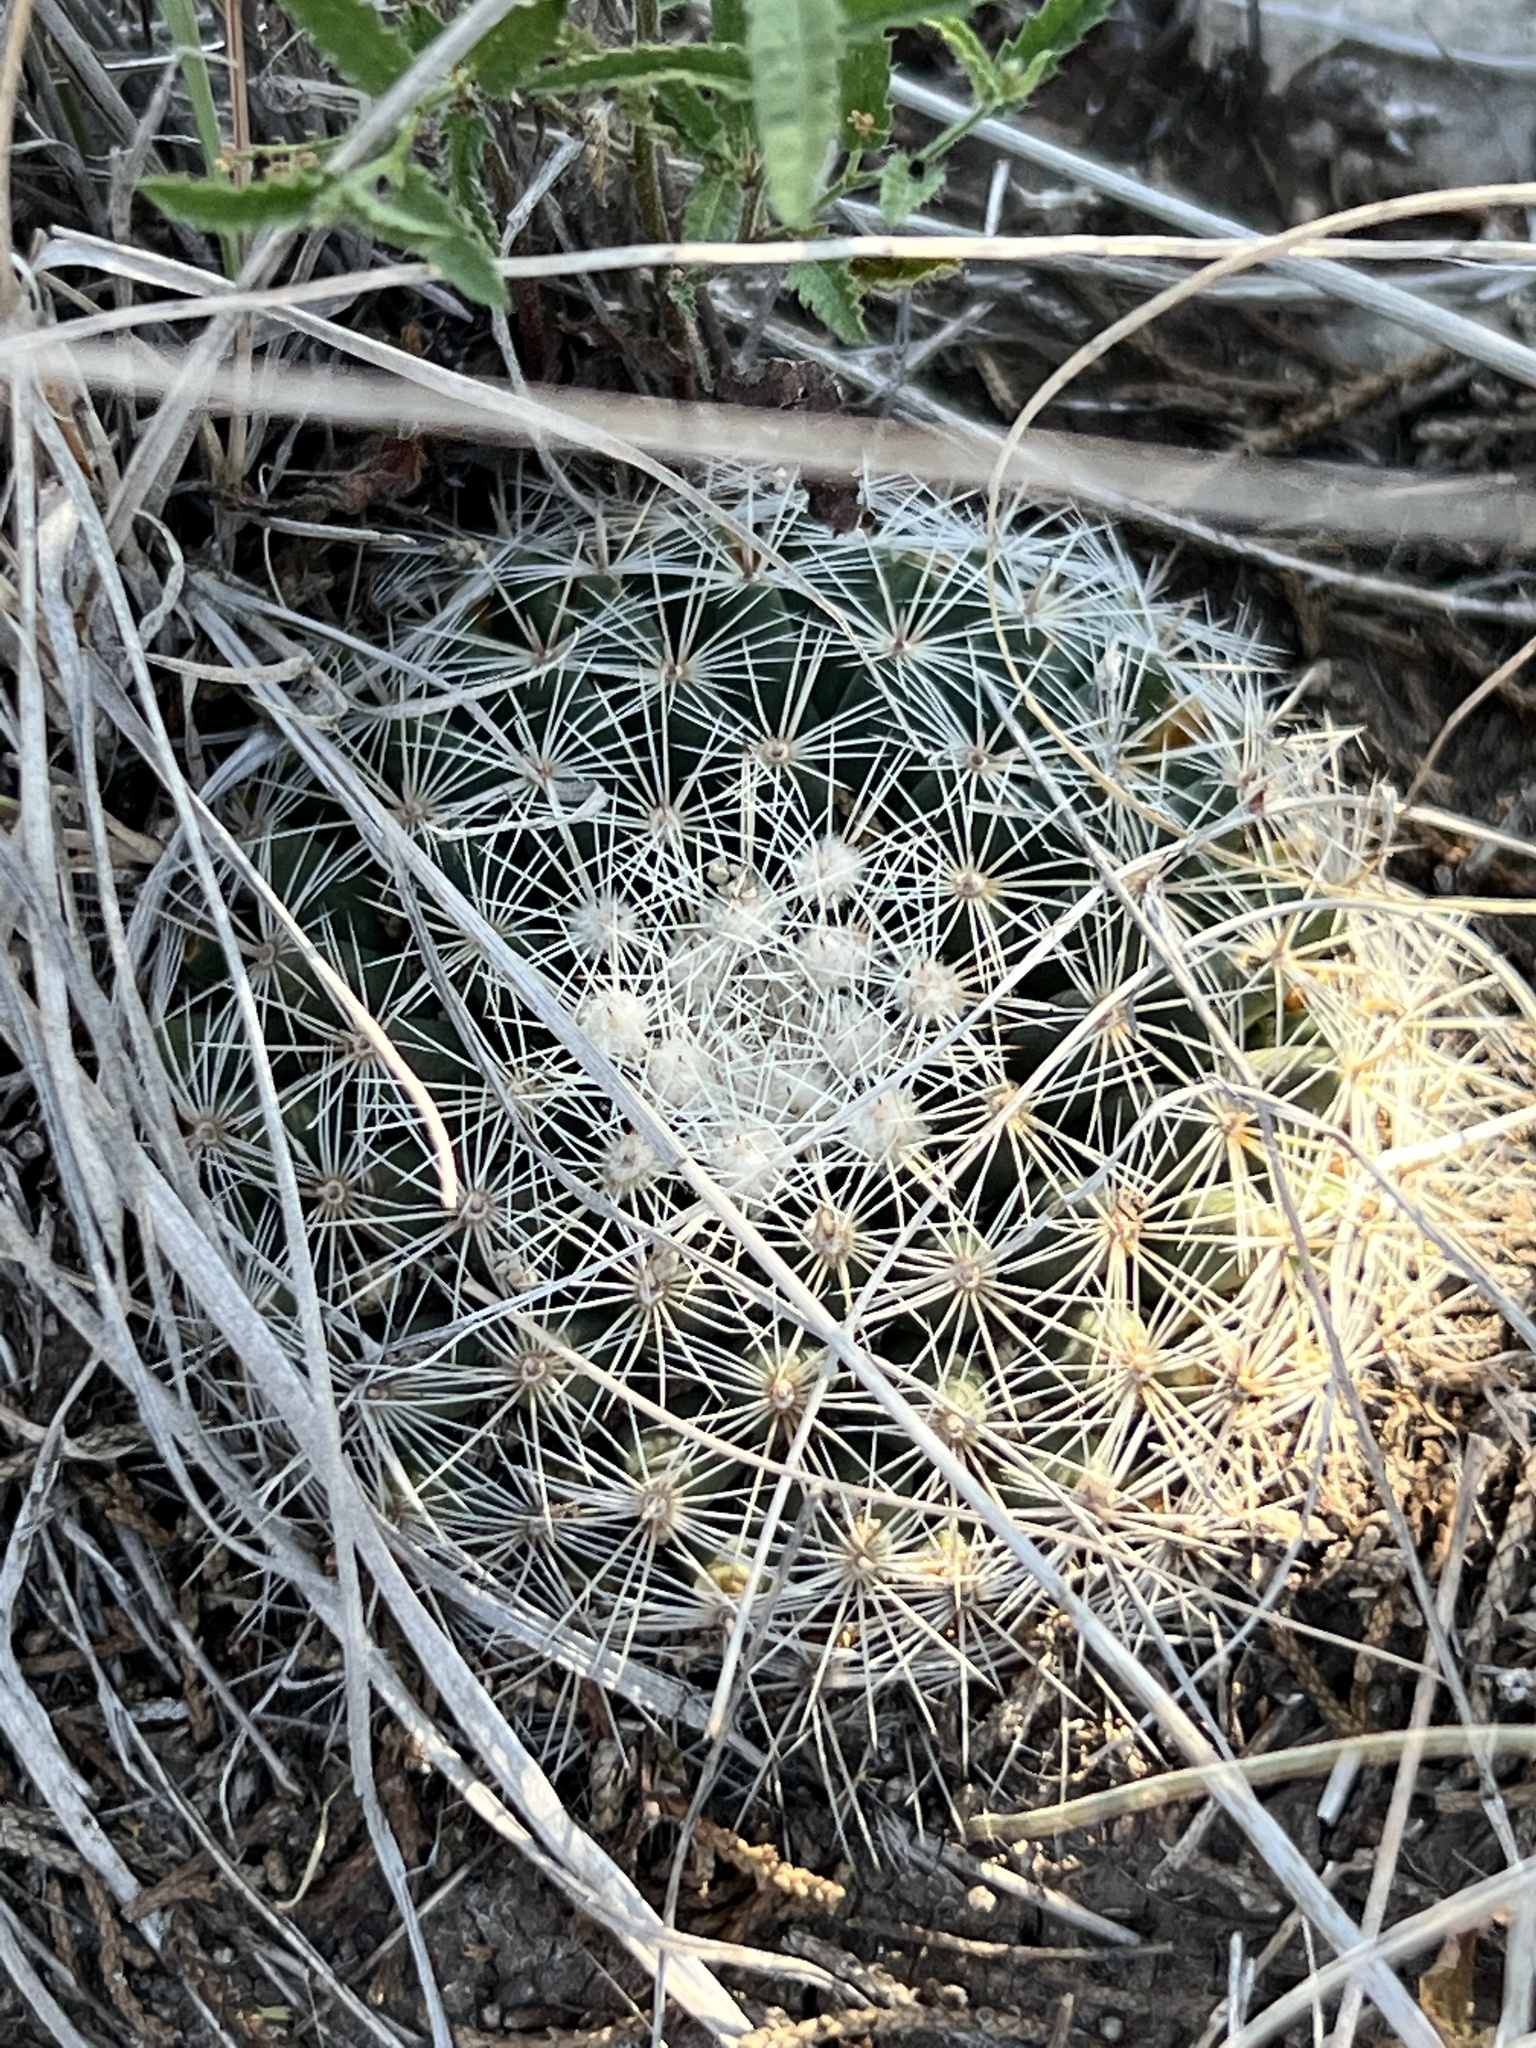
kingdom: Plantae
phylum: Tracheophyta
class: Magnoliopsida
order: Caryophyllales
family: Cactaceae
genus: Mammillaria
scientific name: Mammillaria heyderi
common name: Little nipple cactus
